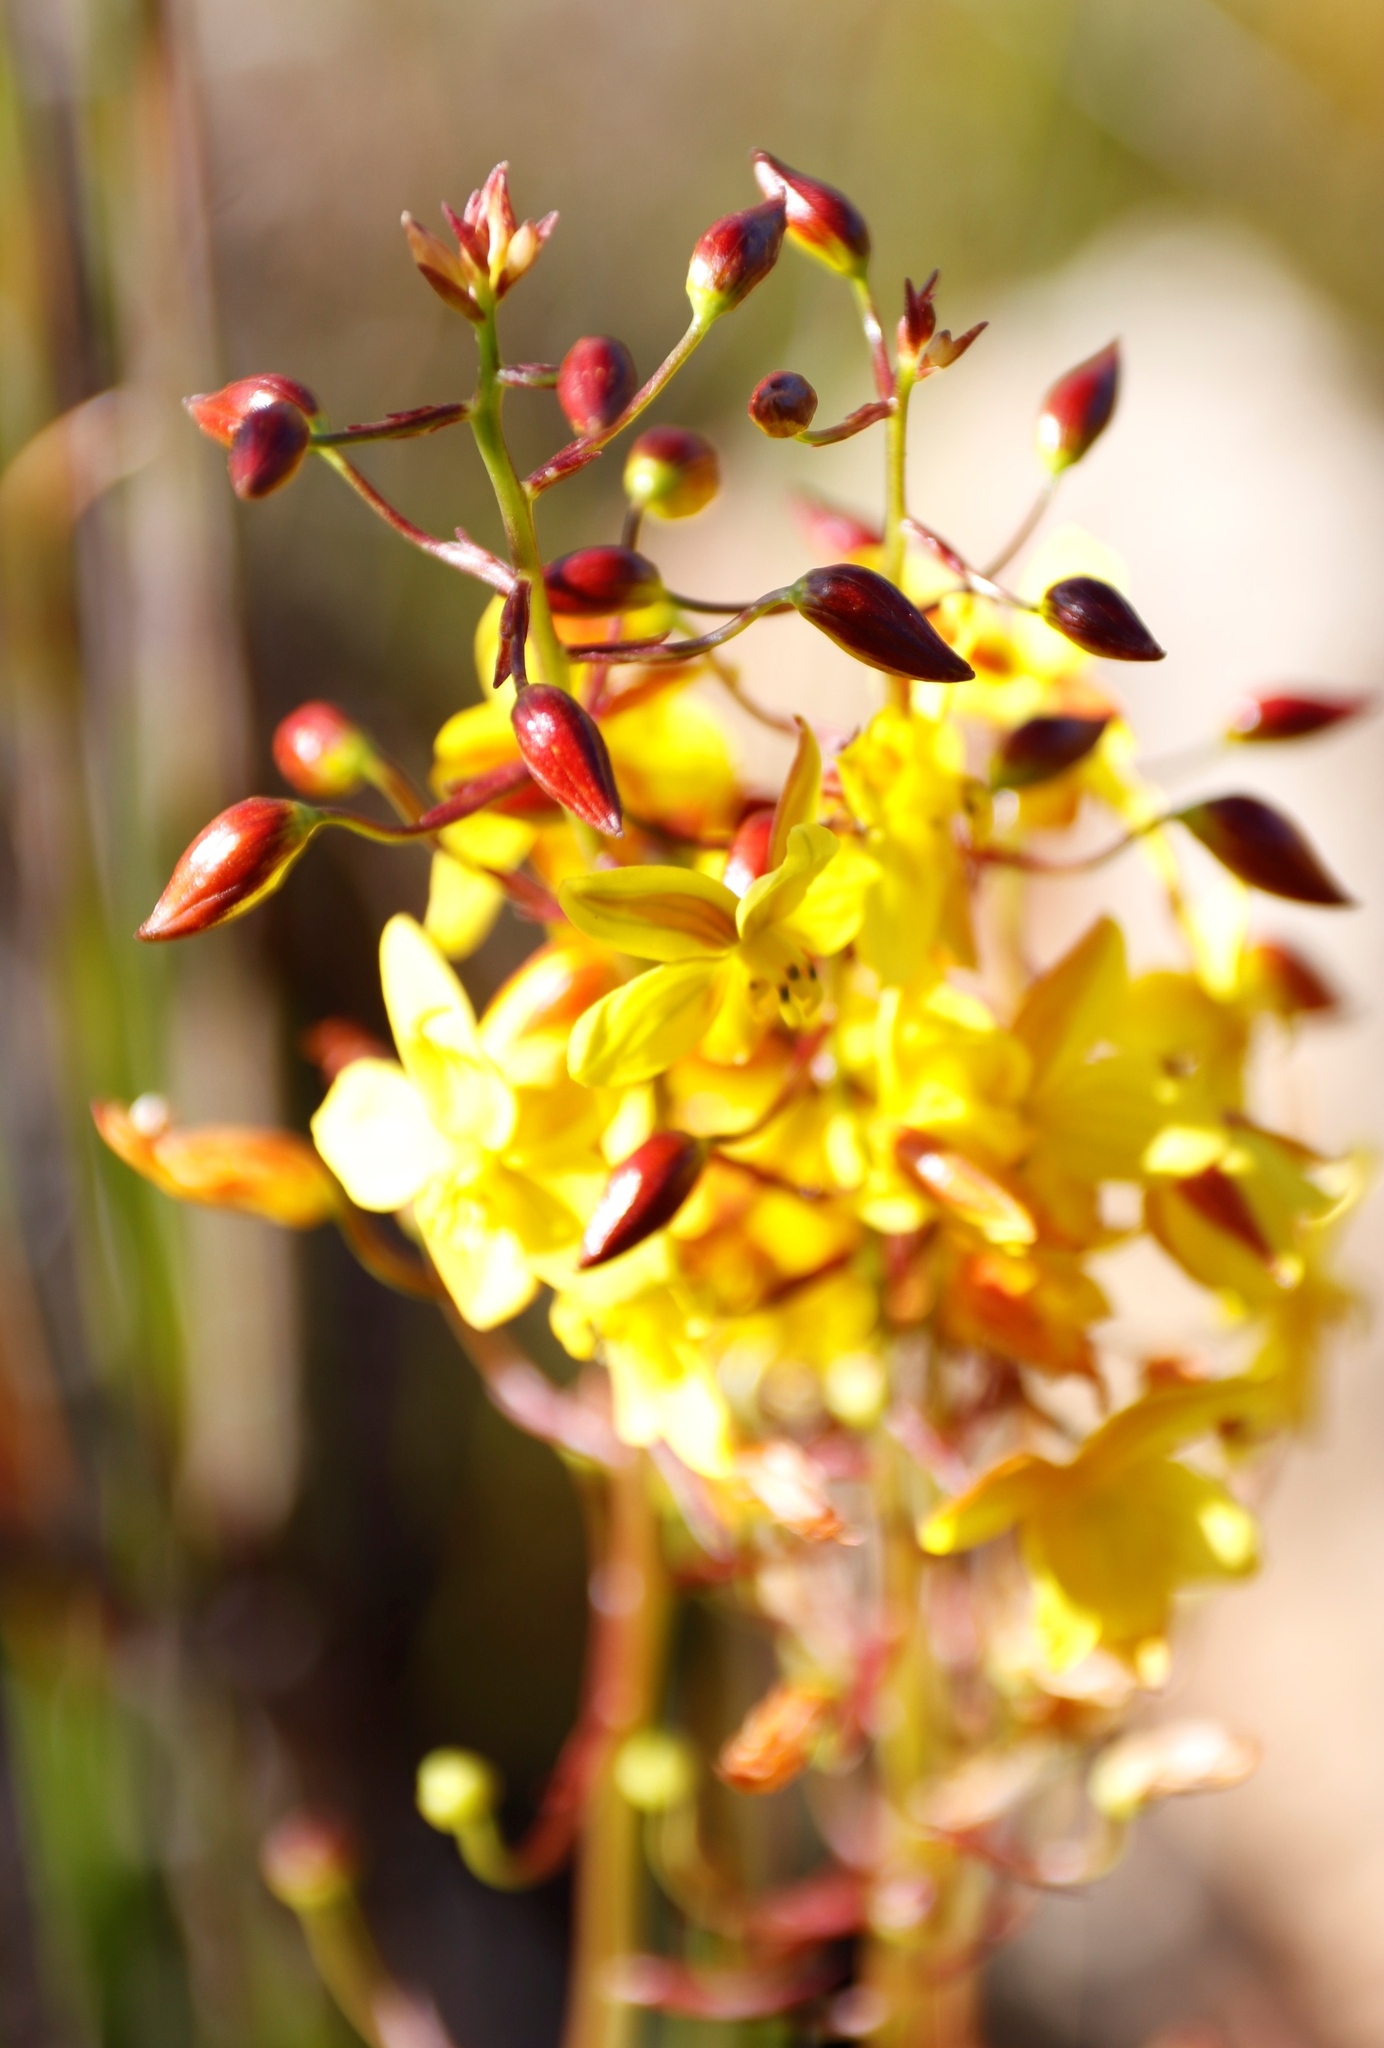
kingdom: Plantae
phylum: Tracheophyta
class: Liliopsida
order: Asparagales
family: Tecophilaeaceae
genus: Cyanella
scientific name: Cyanella lutea
